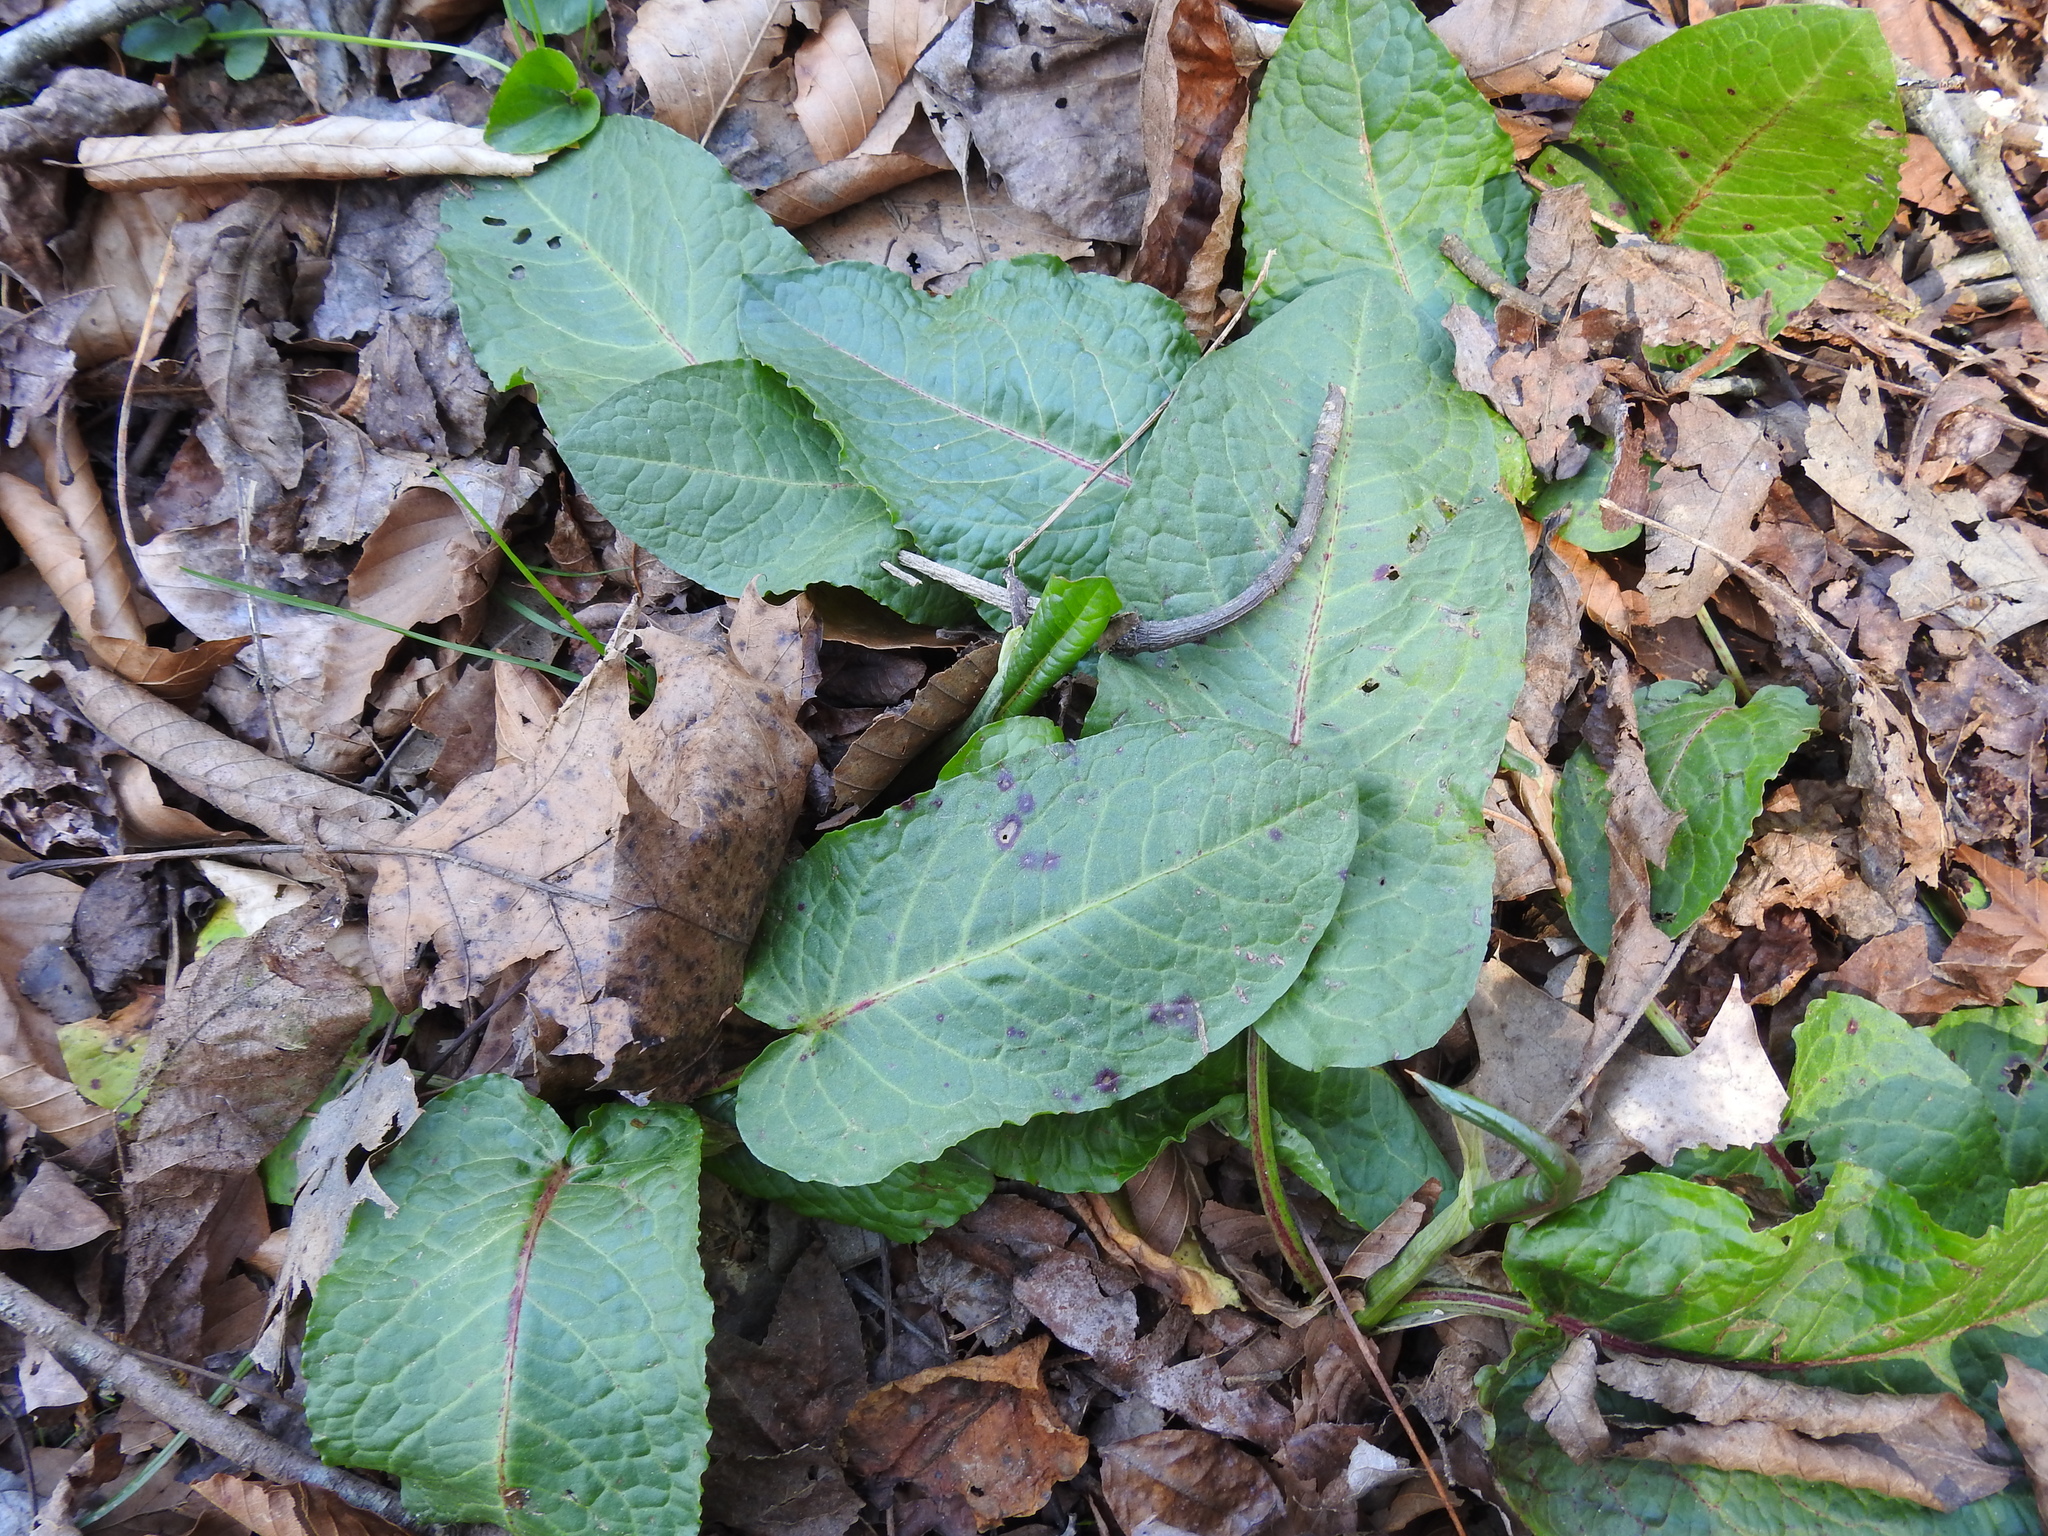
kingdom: Plantae
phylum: Tracheophyta
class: Magnoliopsida
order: Caryophyllales
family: Polygonaceae
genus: Rumex
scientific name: Rumex obtusifolius
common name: Bitter dock
